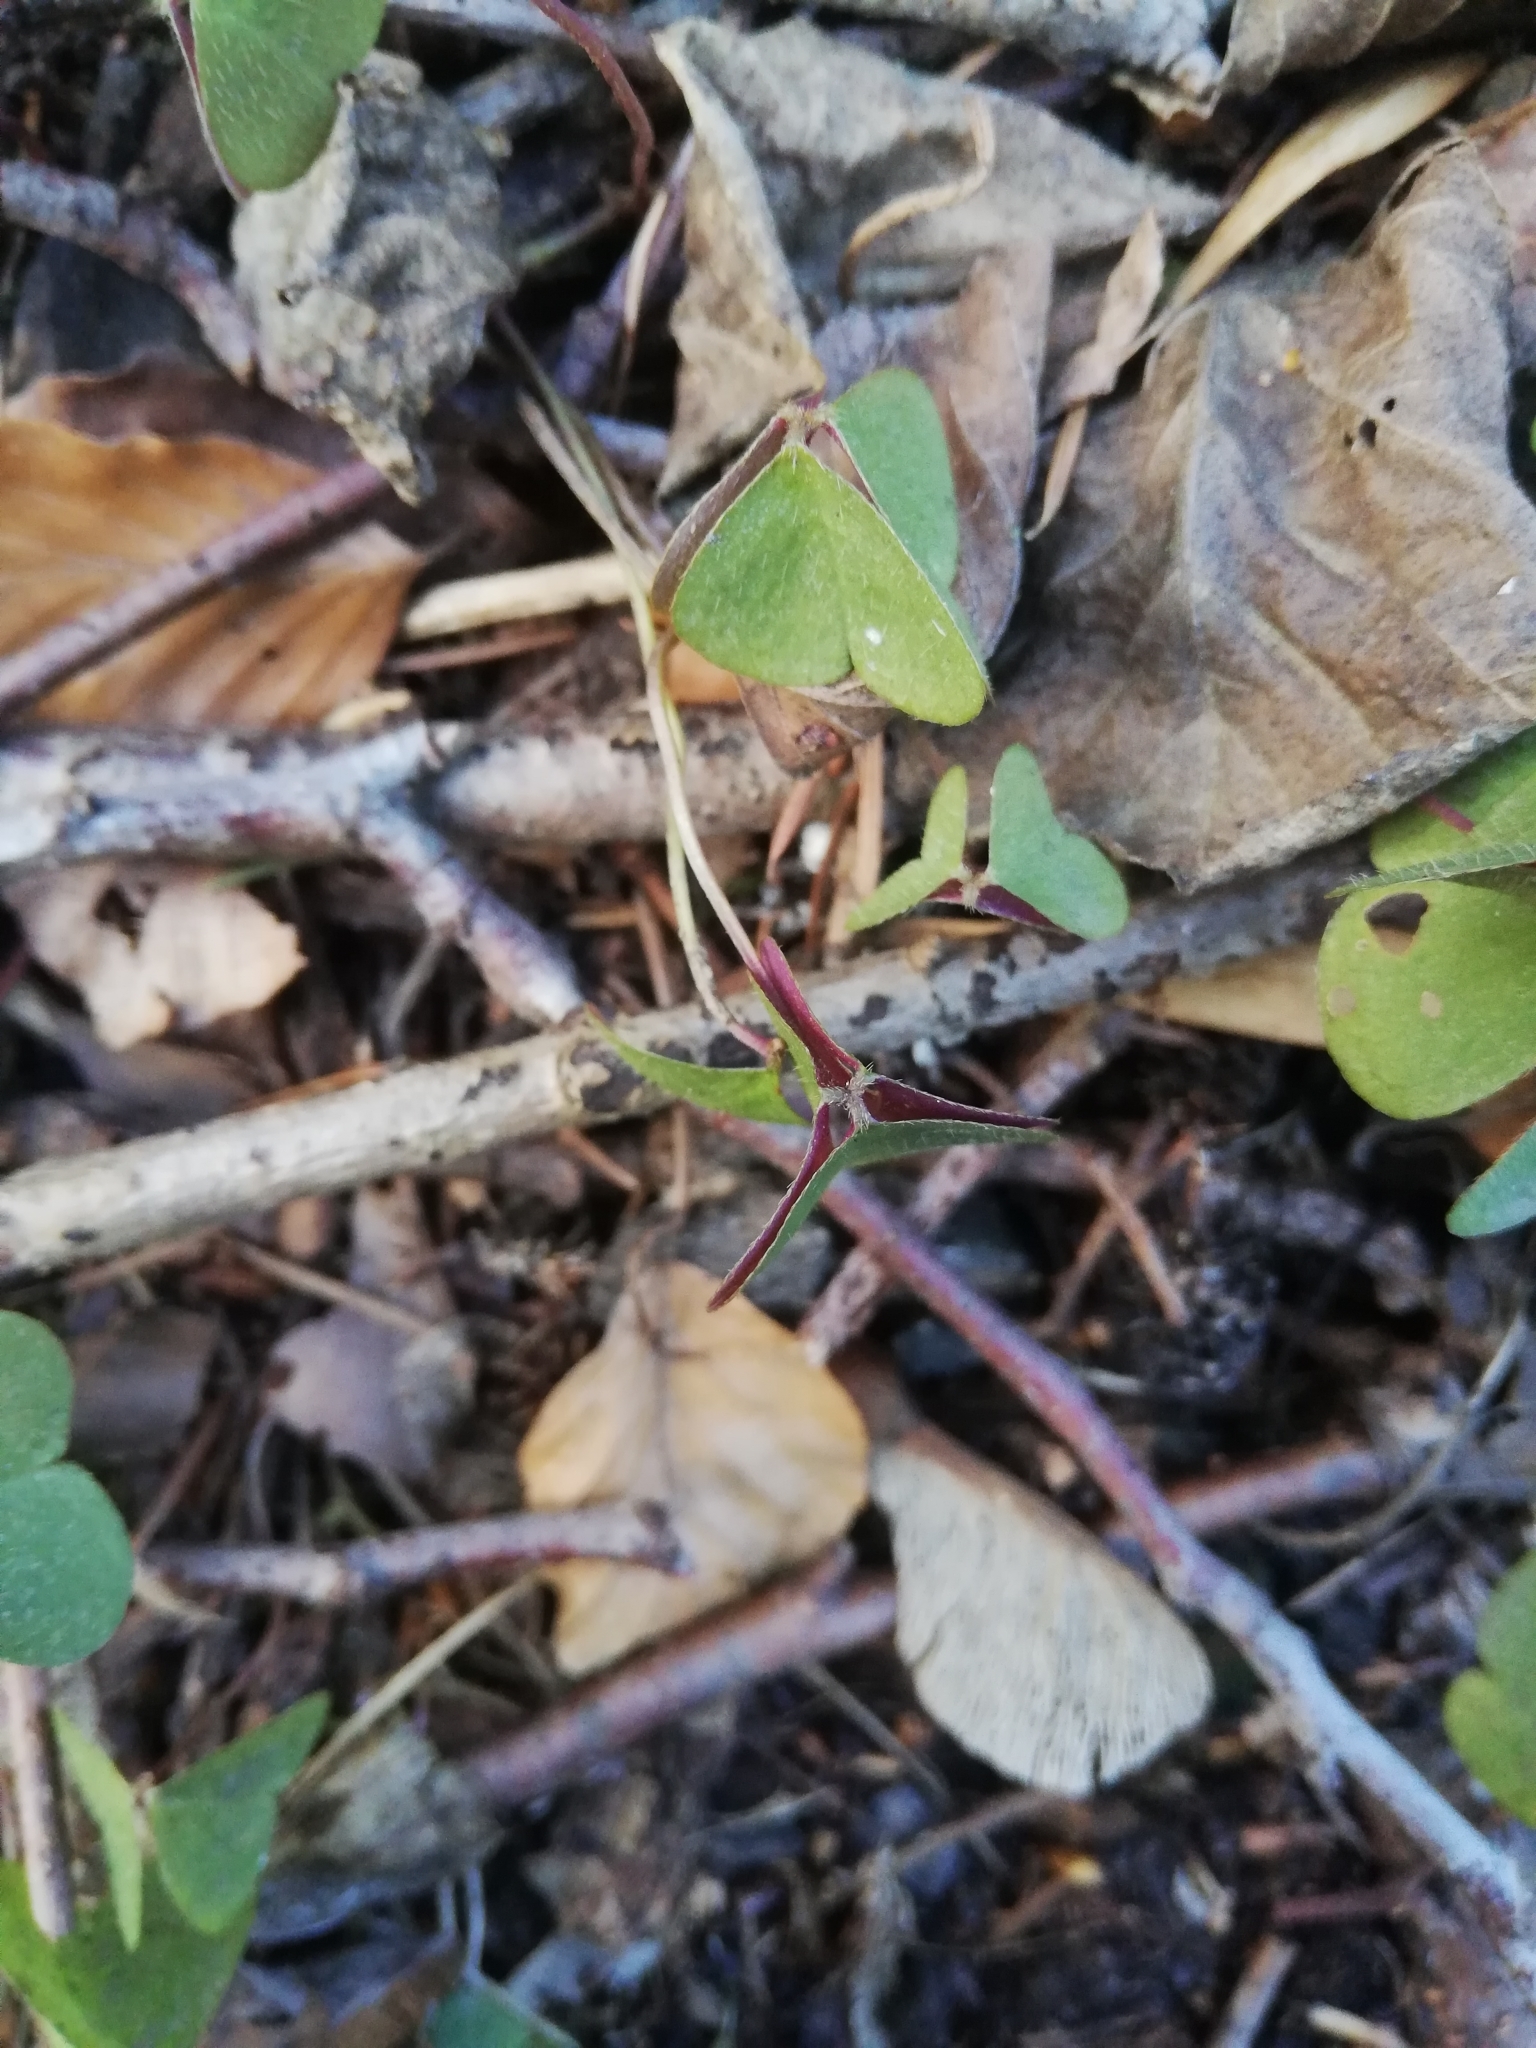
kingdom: Plantae
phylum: Tracheophyta
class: Magnoliopsida
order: Oxalidales
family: Oxalidaceae
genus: Oxalis
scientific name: Oxalis acetosella
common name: Wood-sorrel
